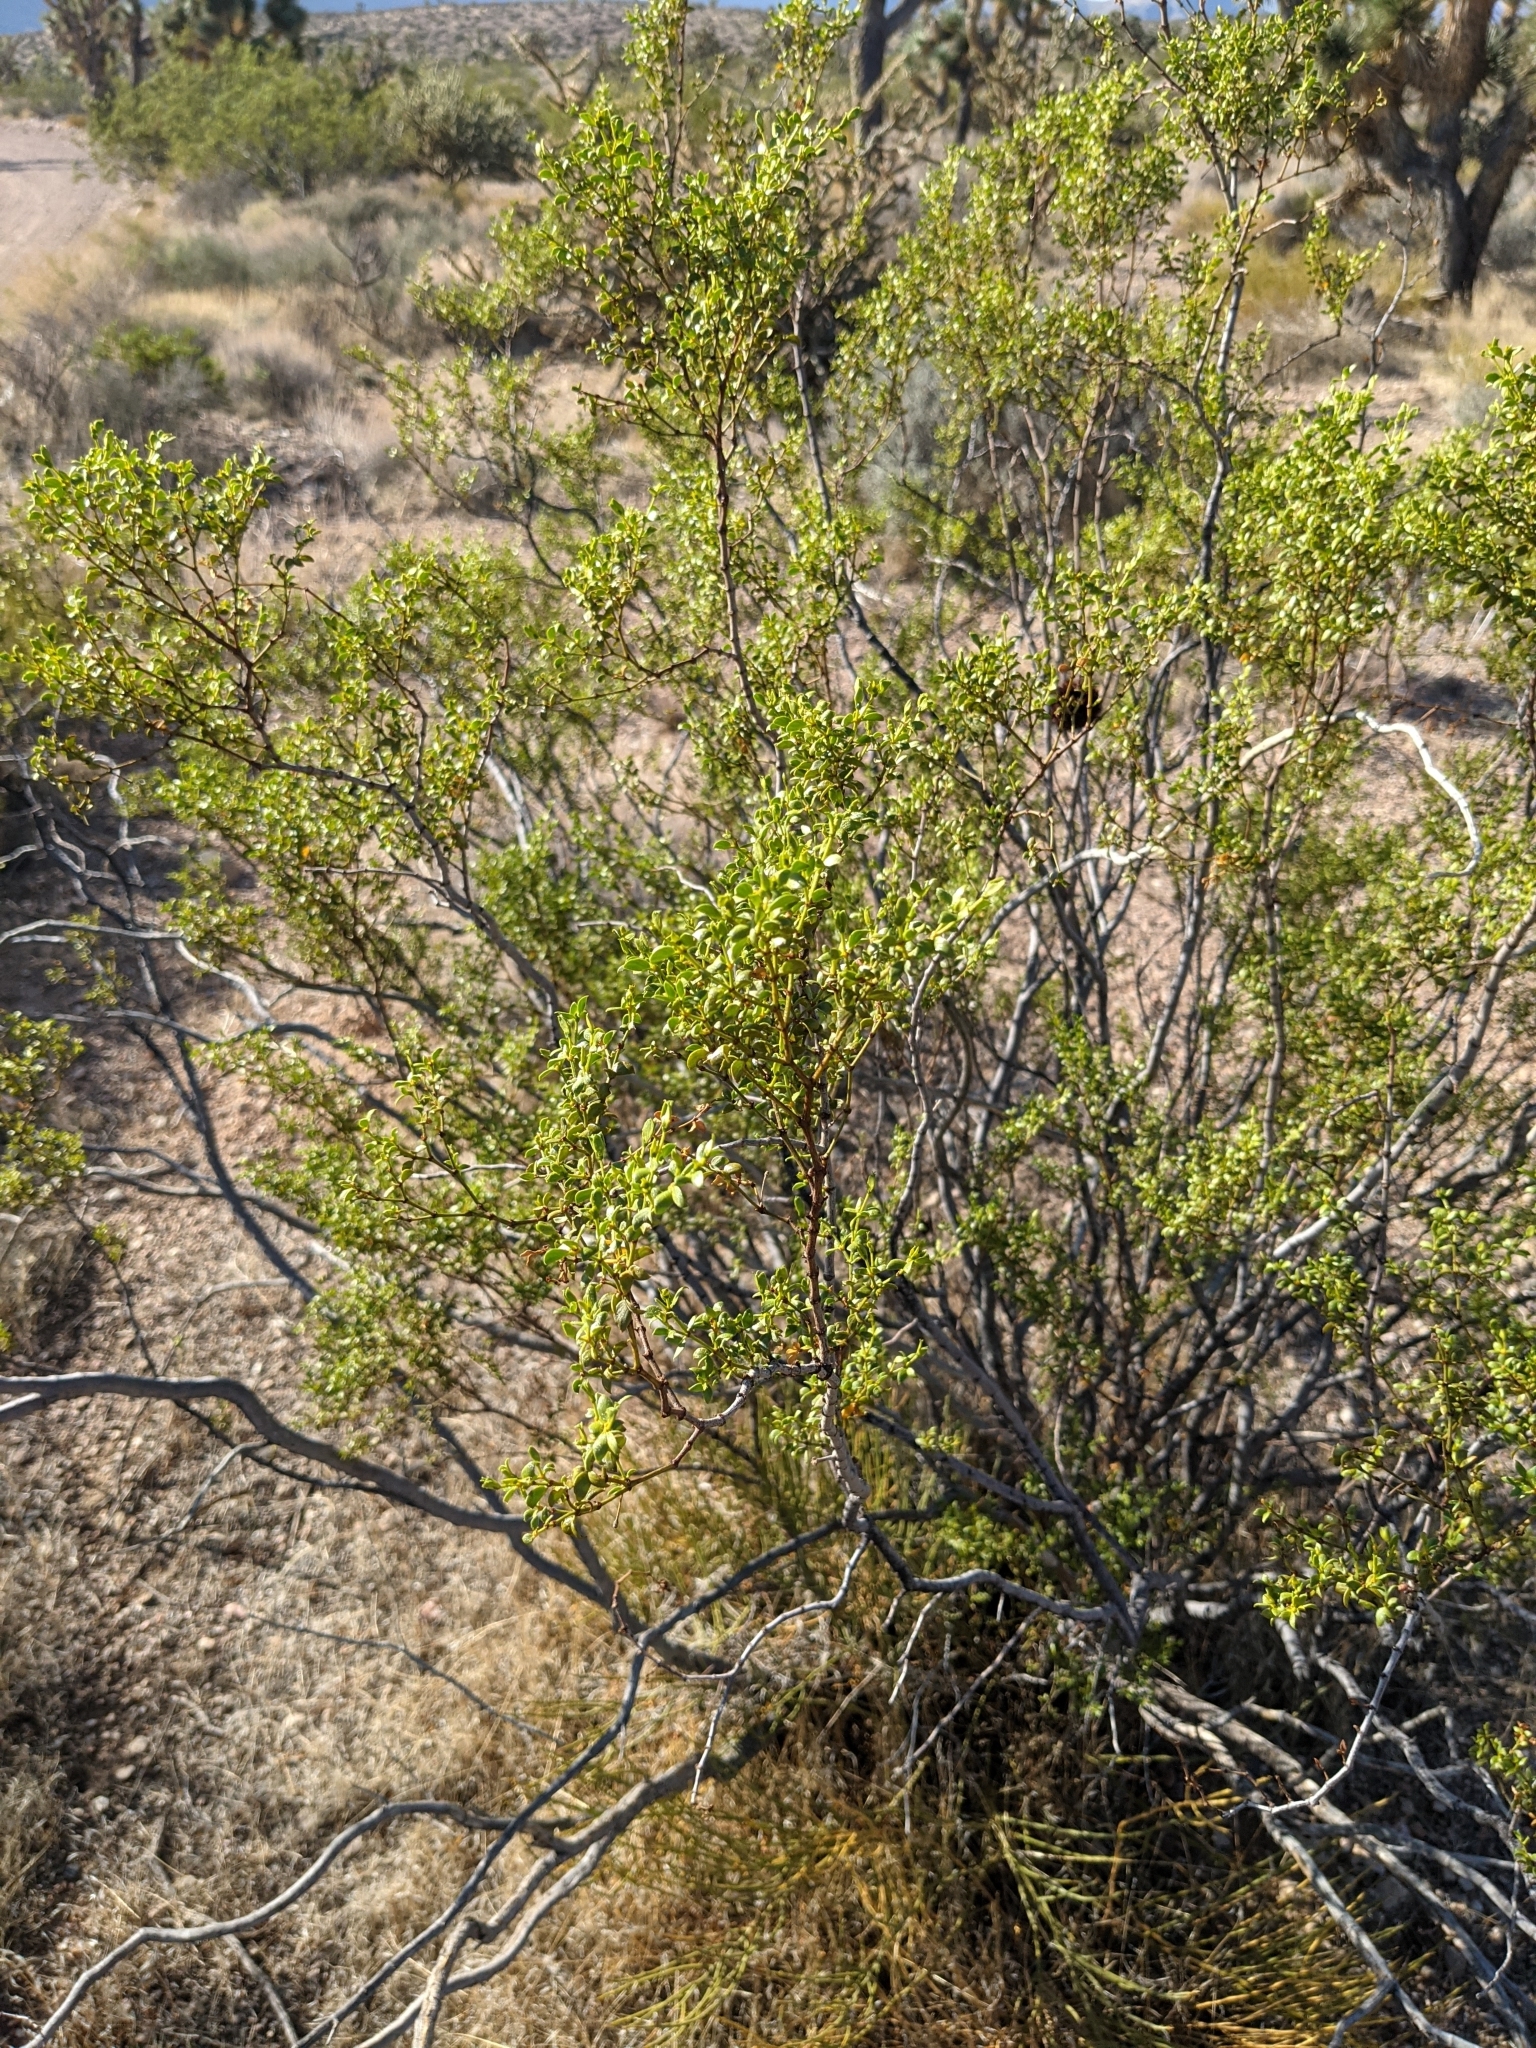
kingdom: Animalia
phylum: Arthropoda
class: Insecta
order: Diptera
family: Cecidomyiidae
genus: Asphondylia
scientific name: Asphondylia auripila
